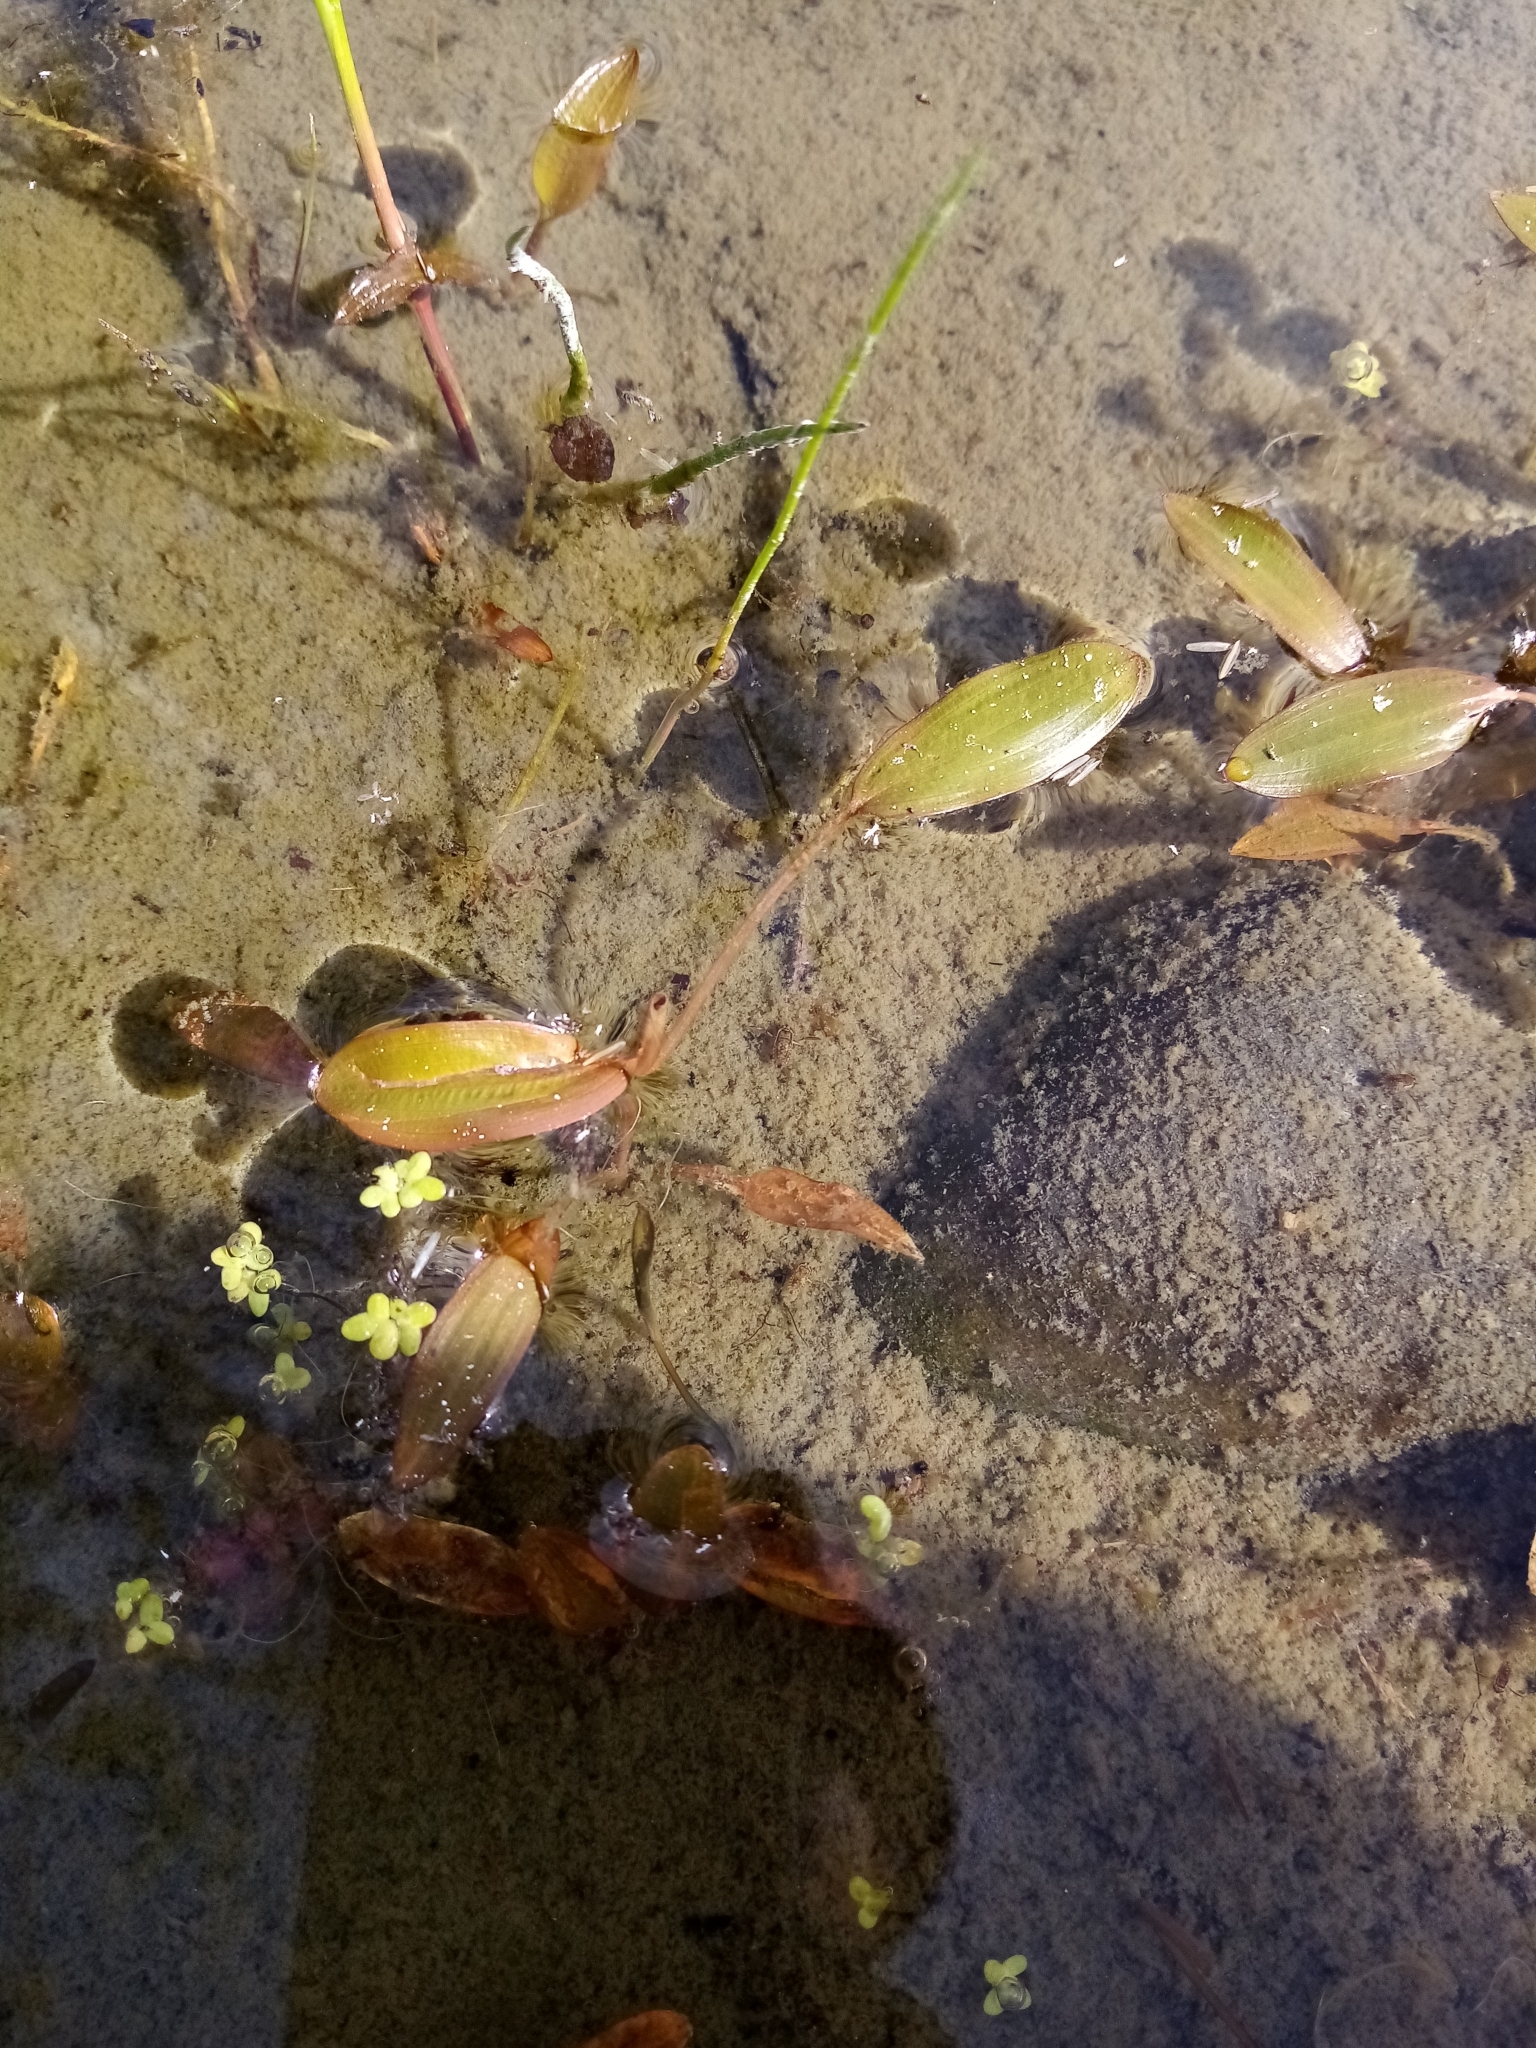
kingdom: Plantae
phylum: Tracheophyta
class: Liliopsida
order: Alismatales
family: Potamogetonaceae
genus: Potamogeton
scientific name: Potamogeton cheesemanii
